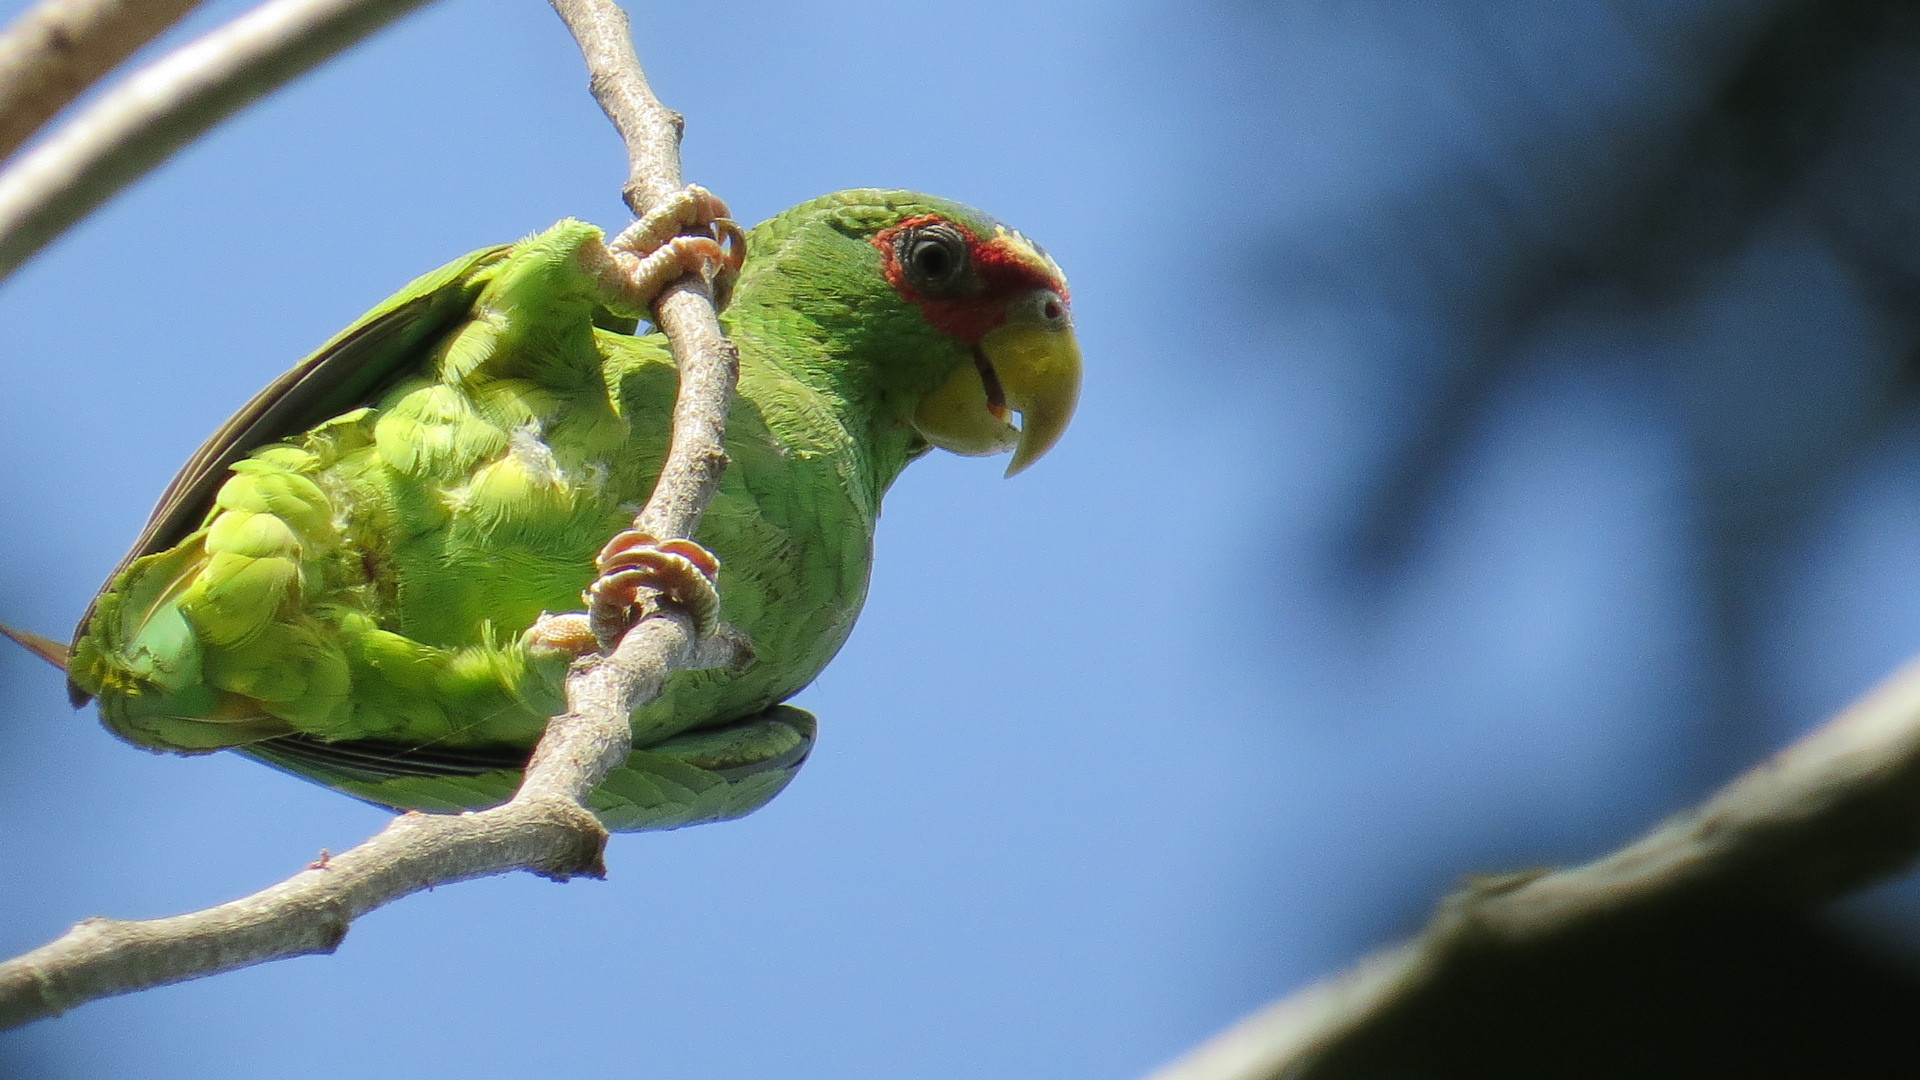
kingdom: Animalia
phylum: Chordata
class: Aves
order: Psittaciformes
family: Psittacidae
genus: Amazona
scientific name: Amazona albifrons
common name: White-fronted amazon
